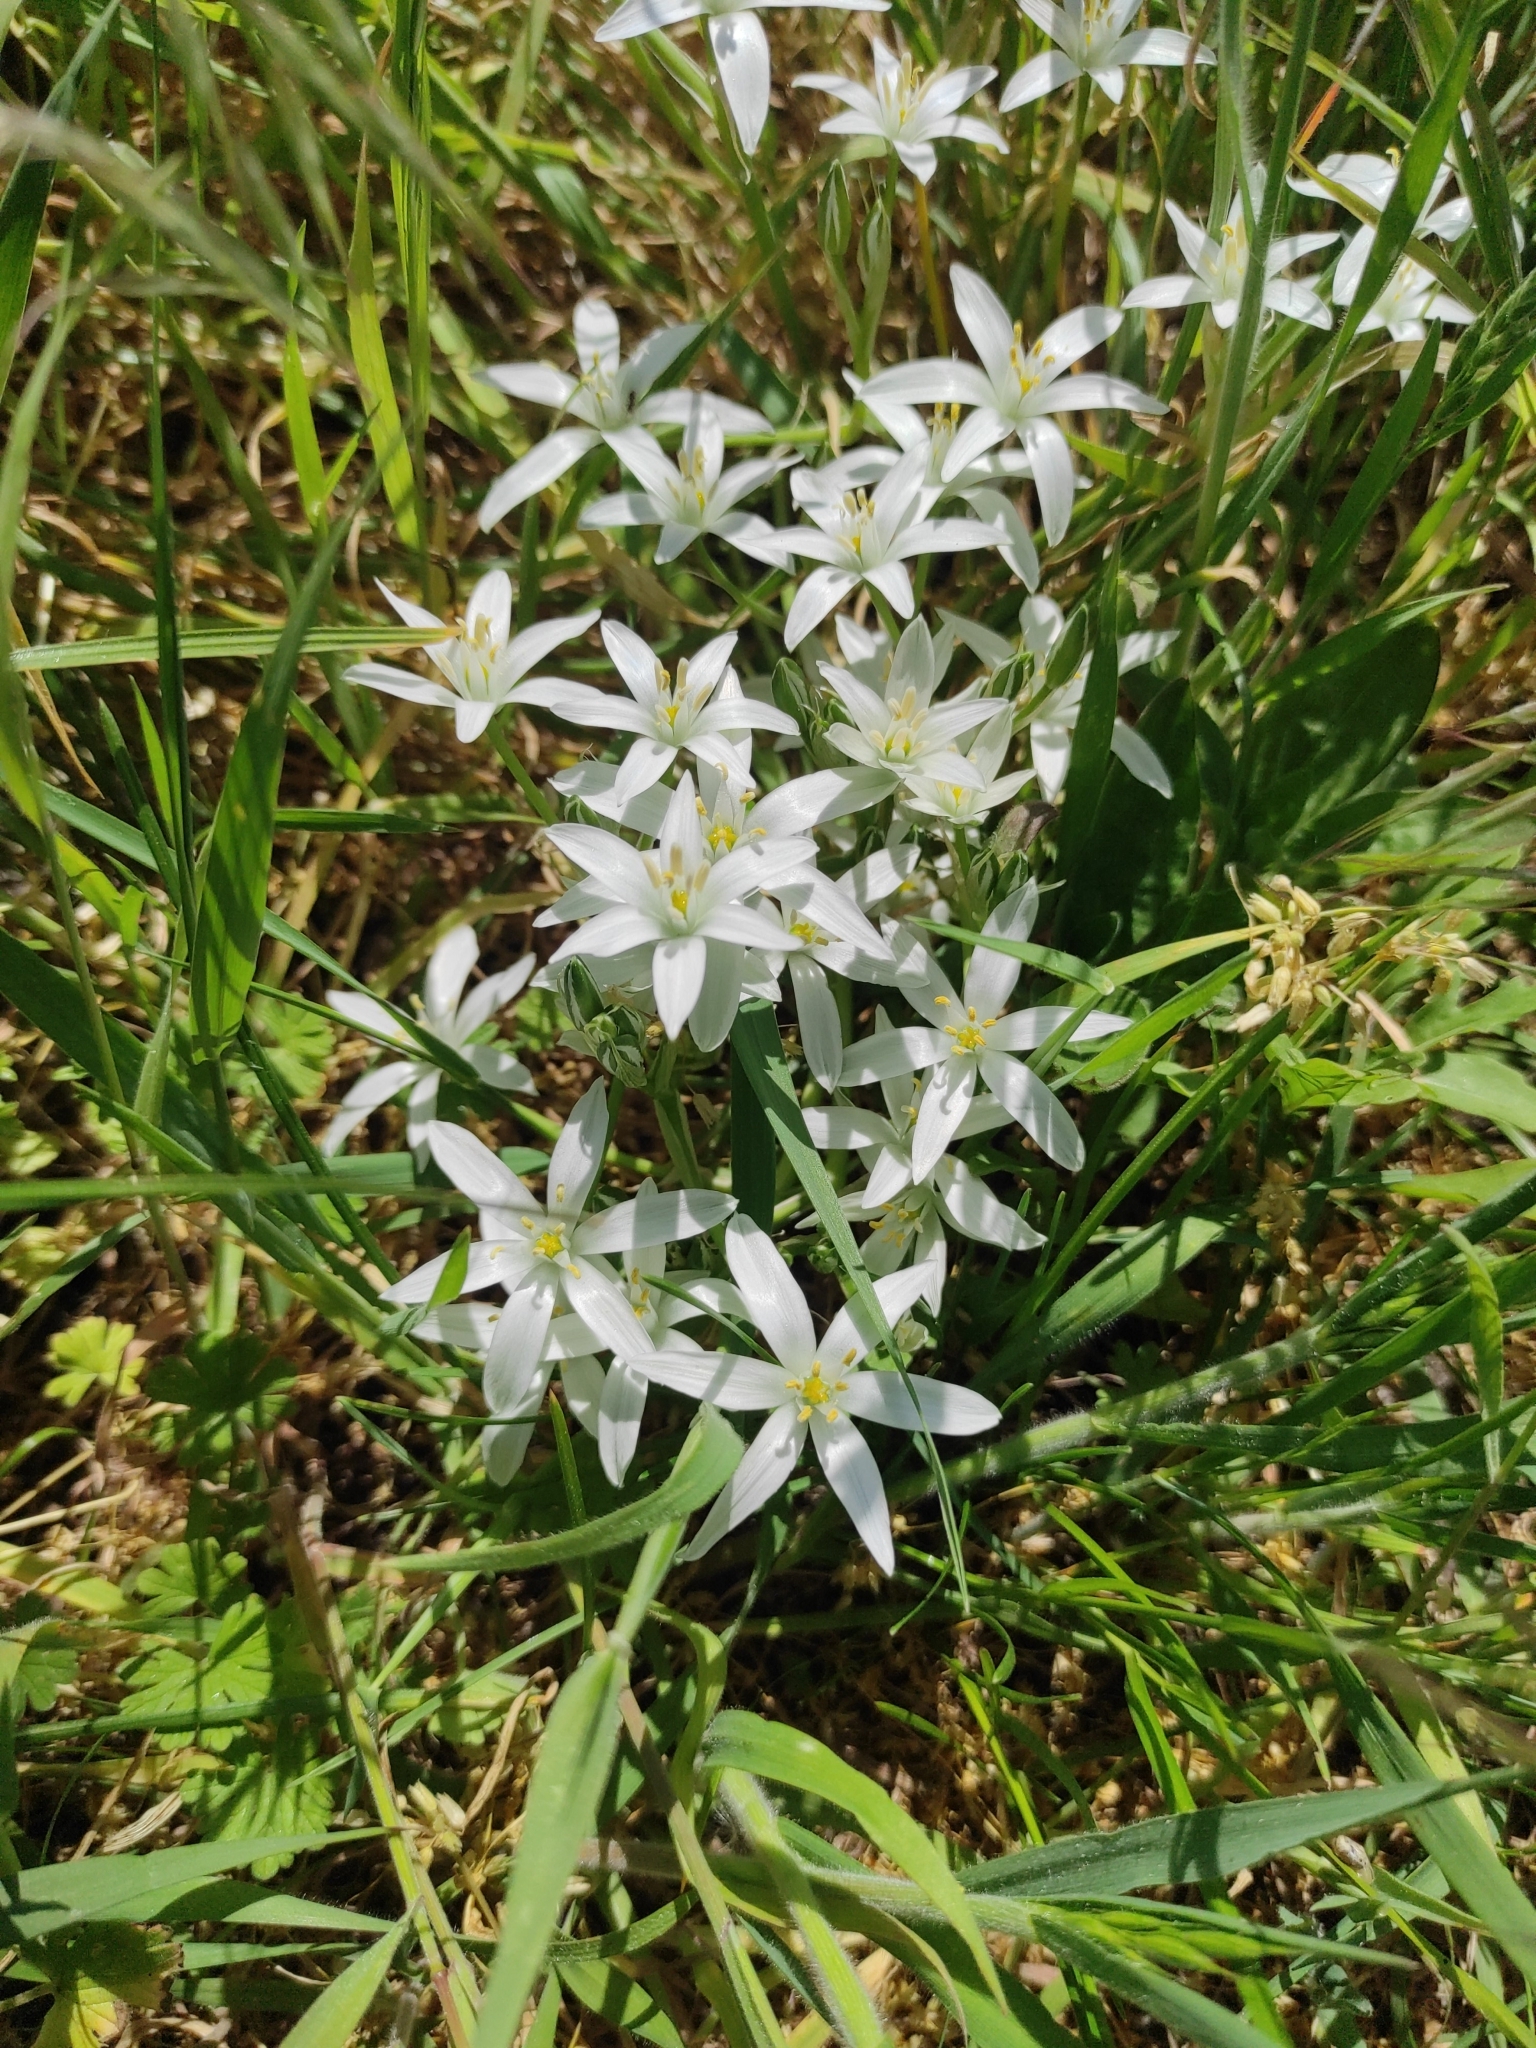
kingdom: Plantae
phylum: Tracheophyta
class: Liliopsida
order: Asparagales
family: Asparagaceae
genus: Ornithogalum
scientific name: Ornithogalum umbellatum
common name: Garden star-of-bethlehem
